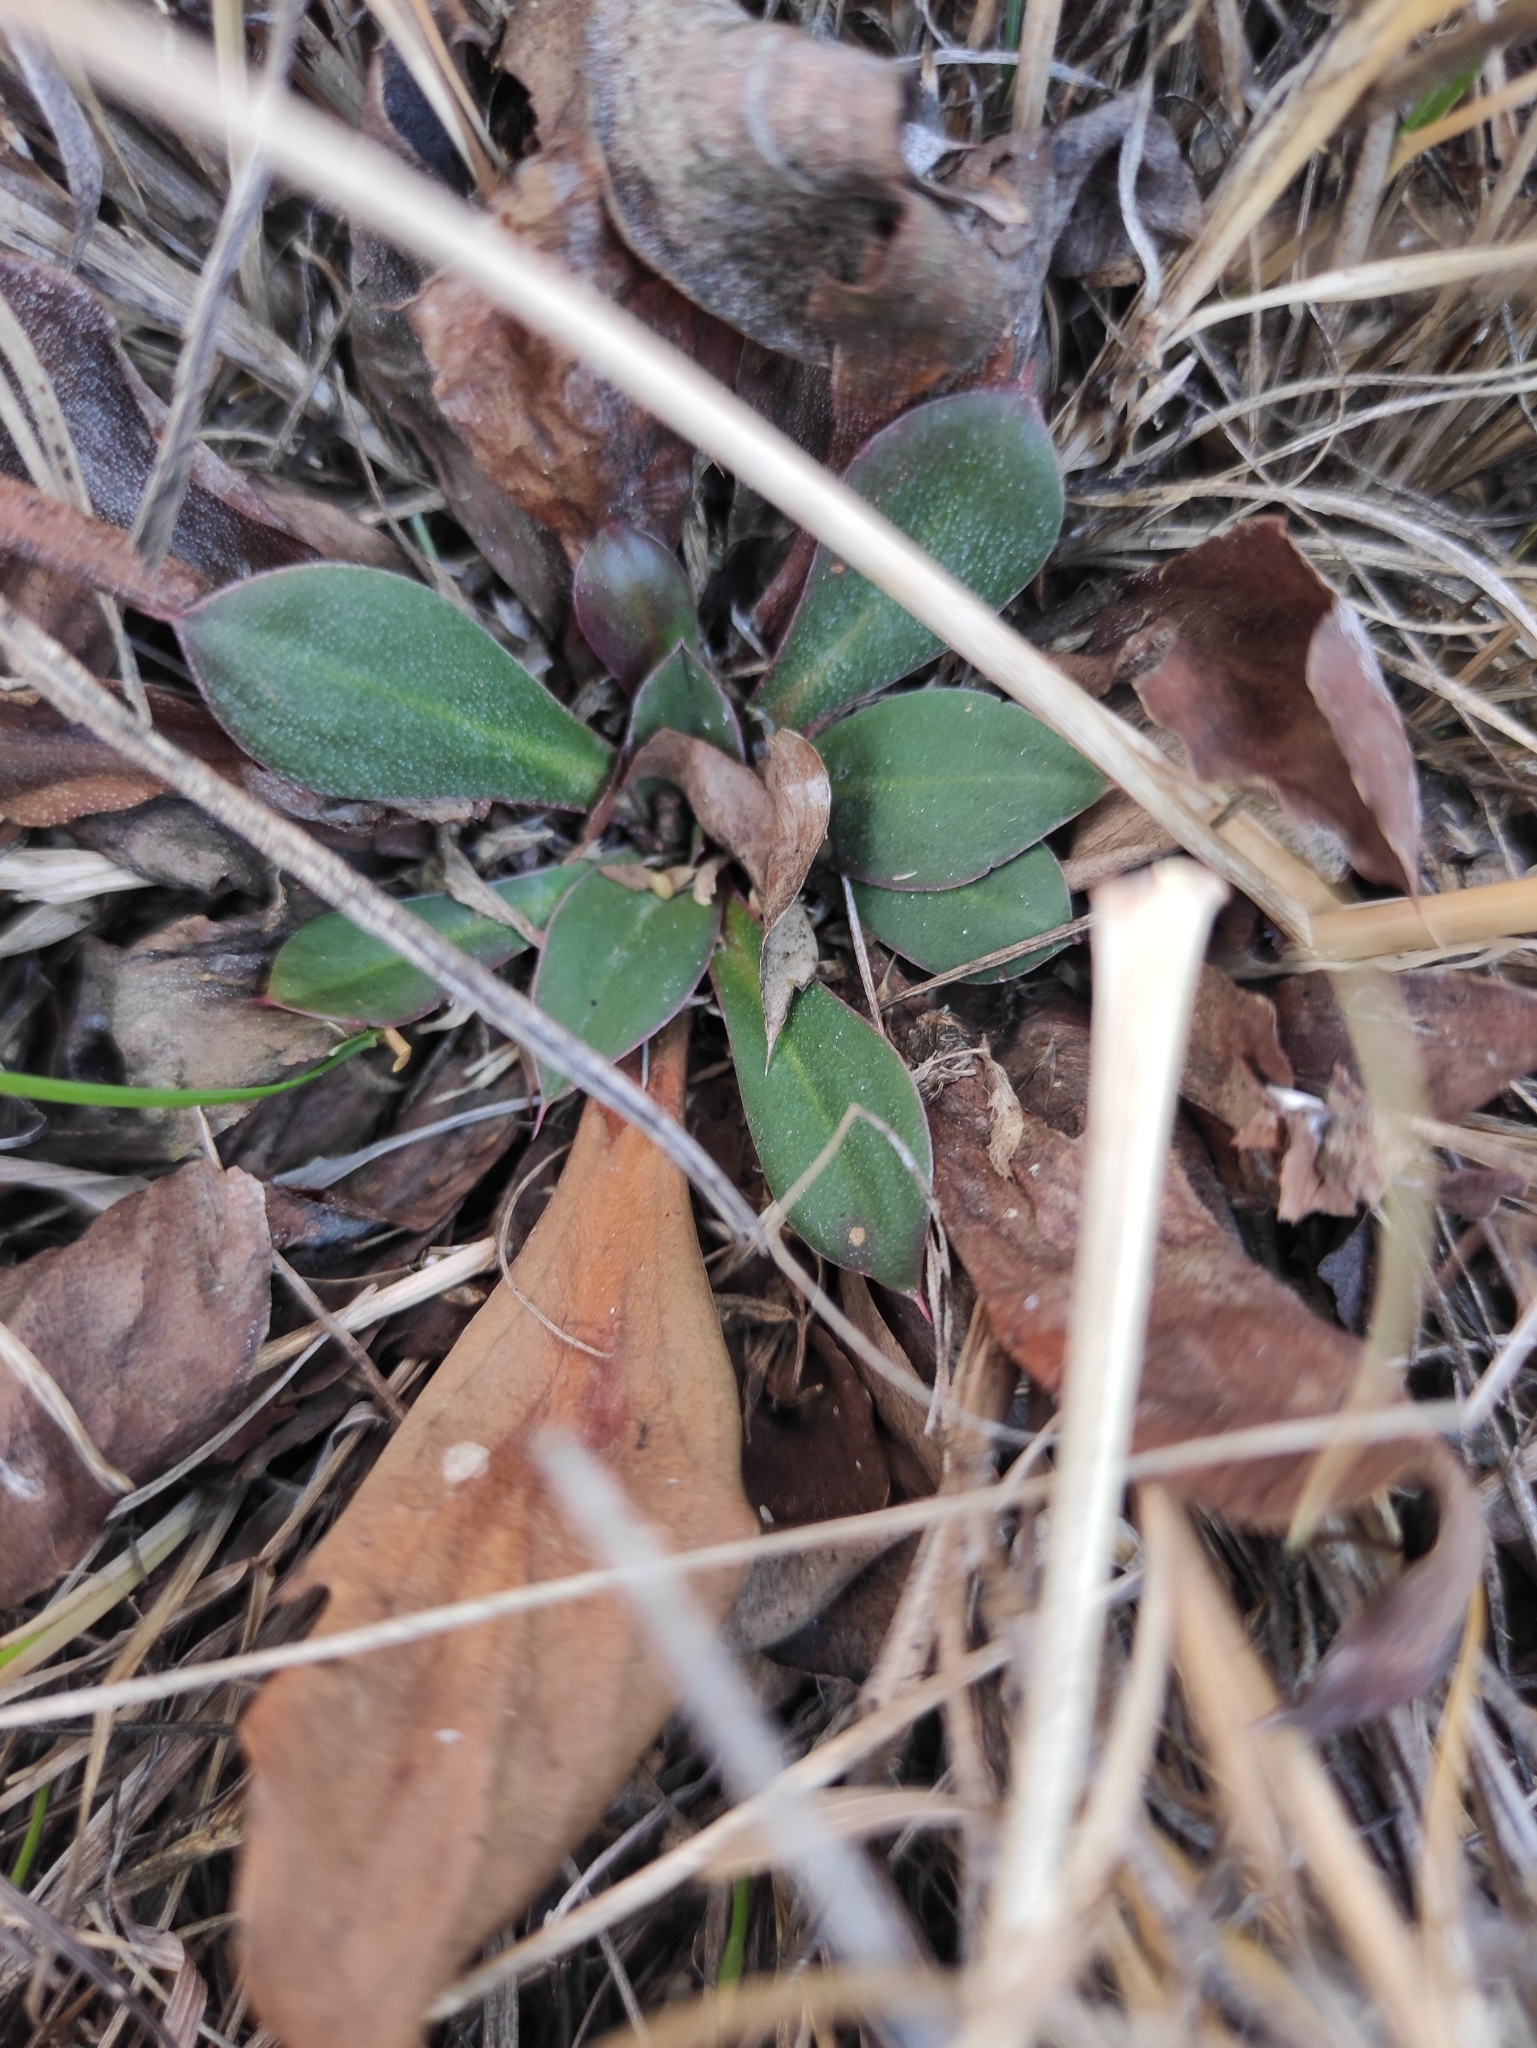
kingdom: Plantae
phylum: Tracheophyta
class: Magnoliopsida
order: Caryophyllales
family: Plumbaginaceae
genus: Goniolimon
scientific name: Goniolimon speciosum
